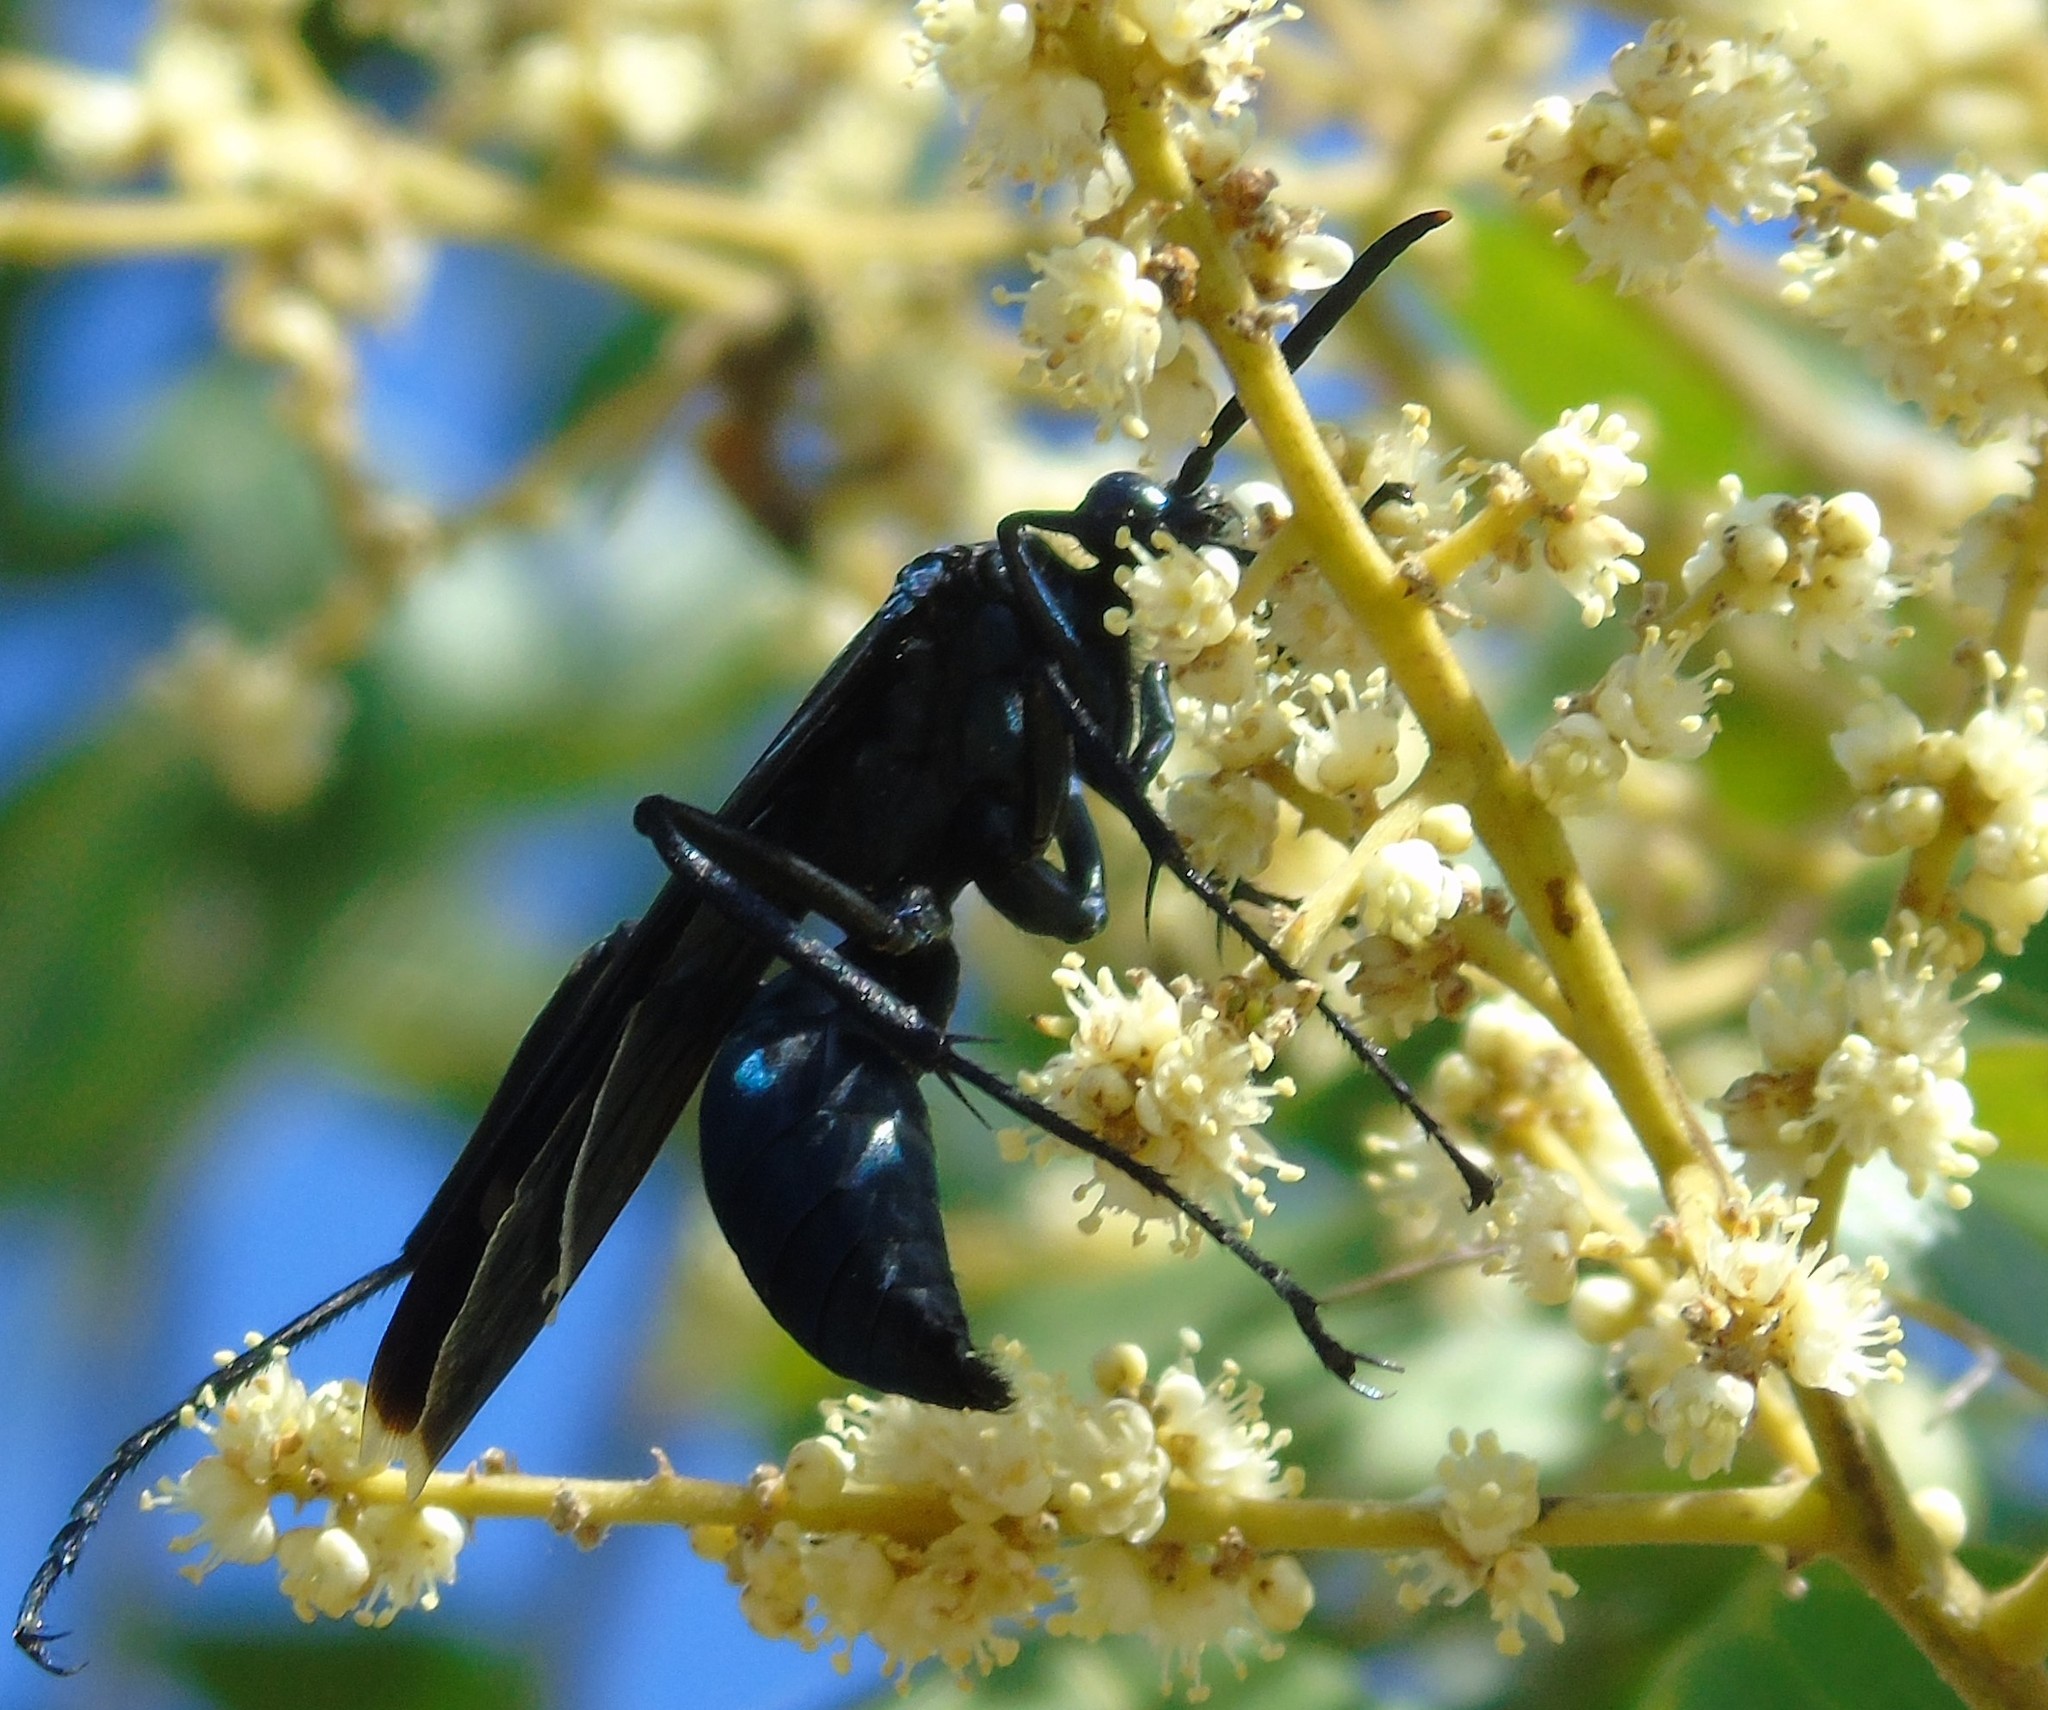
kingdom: Animalia
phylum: Arthropoda
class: Insecta
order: Hymenoptera
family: Pompilidae
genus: Pepsis
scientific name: Pepsis mexicana
